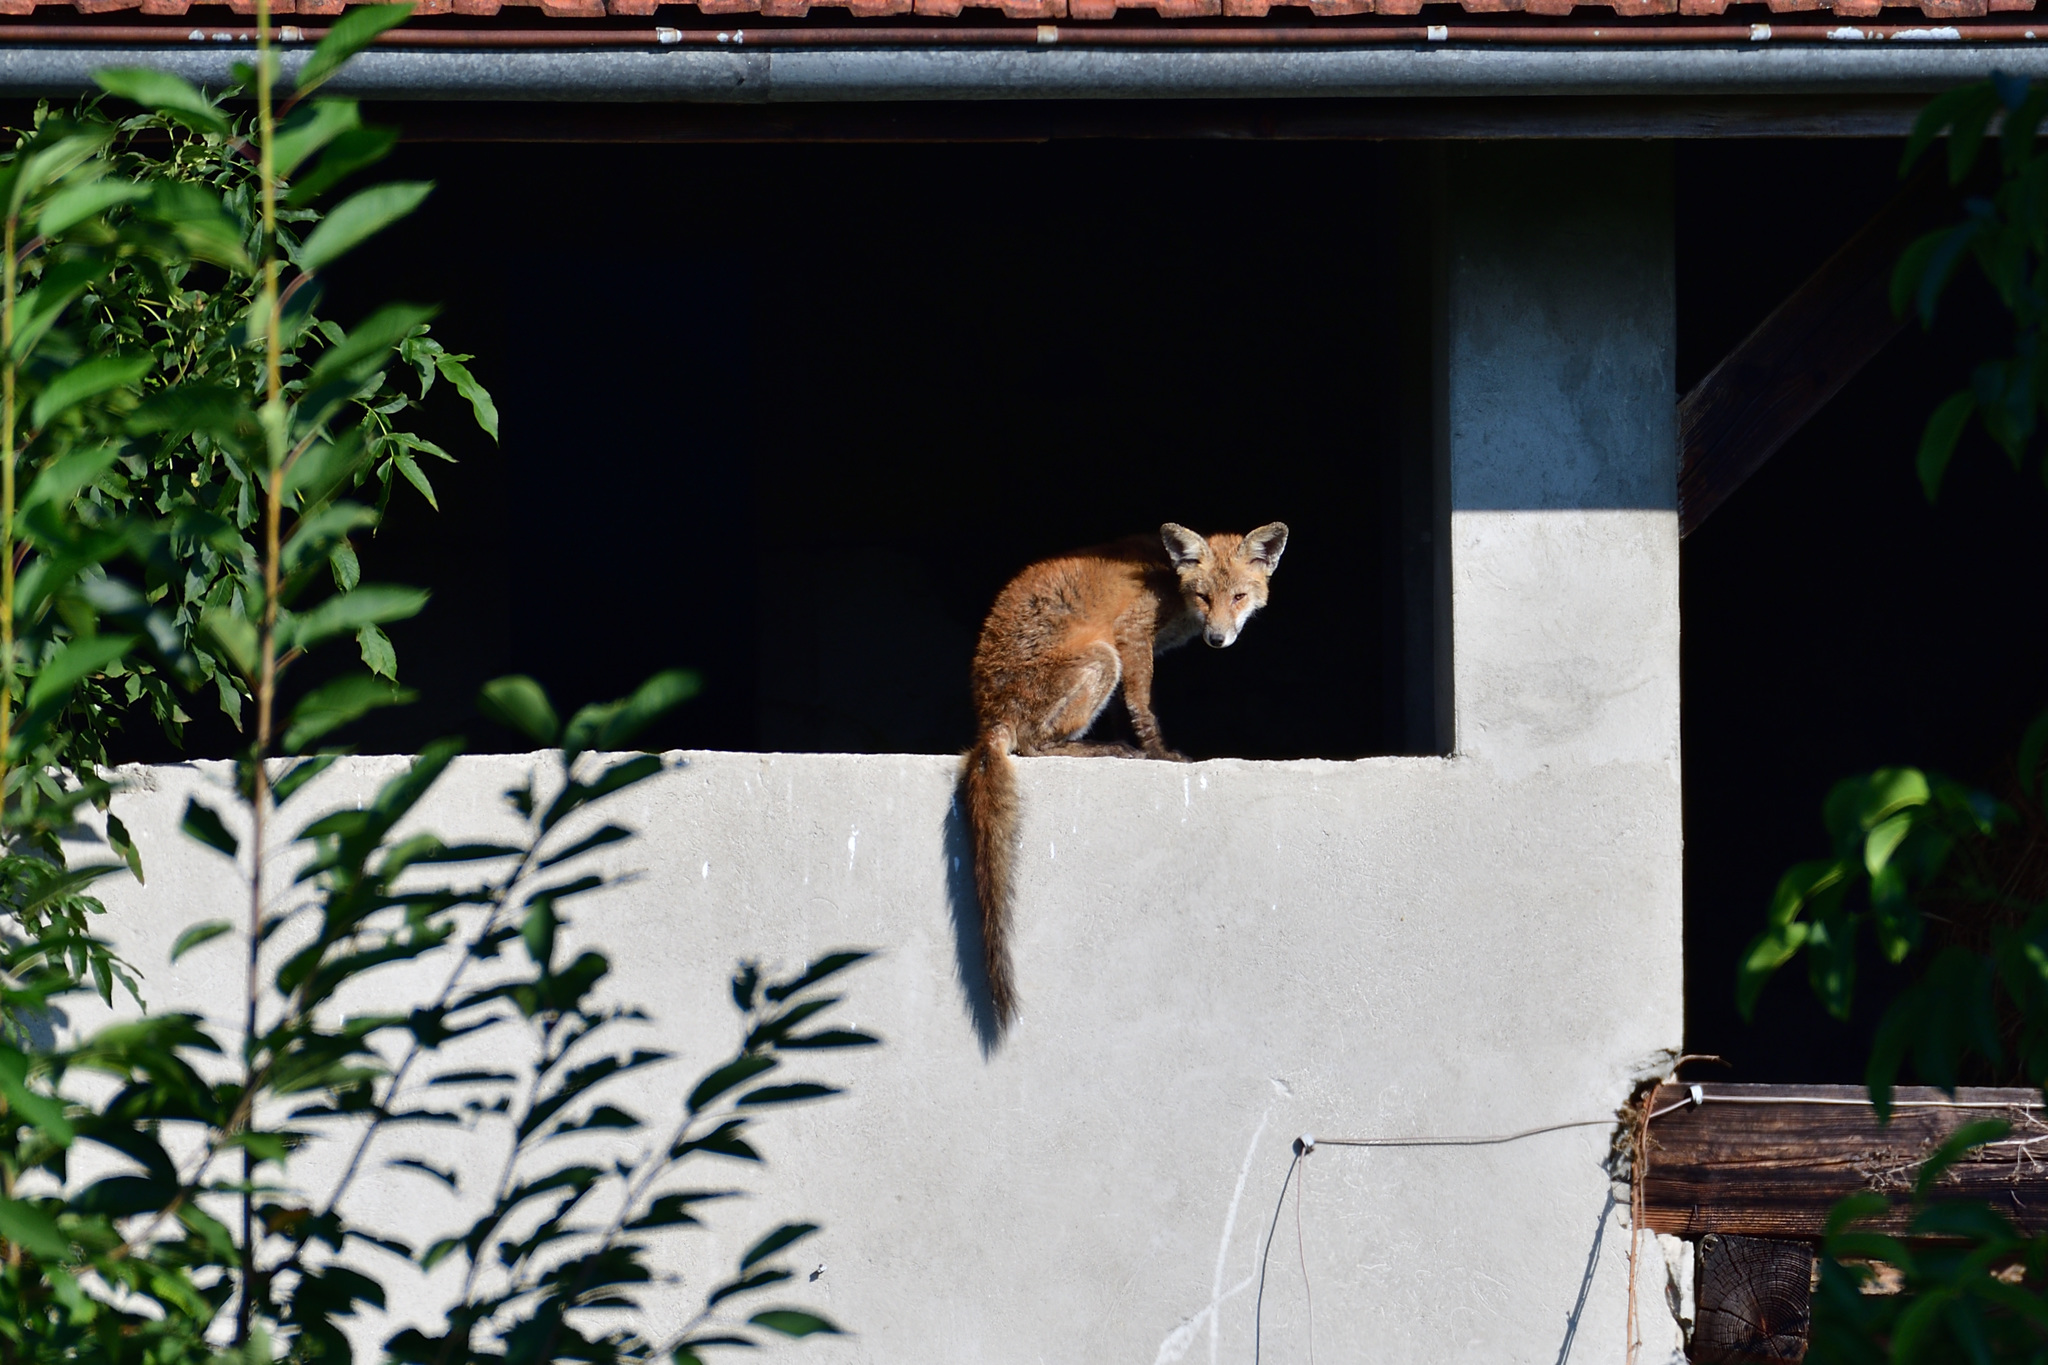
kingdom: Animalia
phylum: Chordata
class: Mammalia
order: Carnivora
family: Canidae
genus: Vulpes
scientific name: Vulpes vulpes
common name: Red fox
